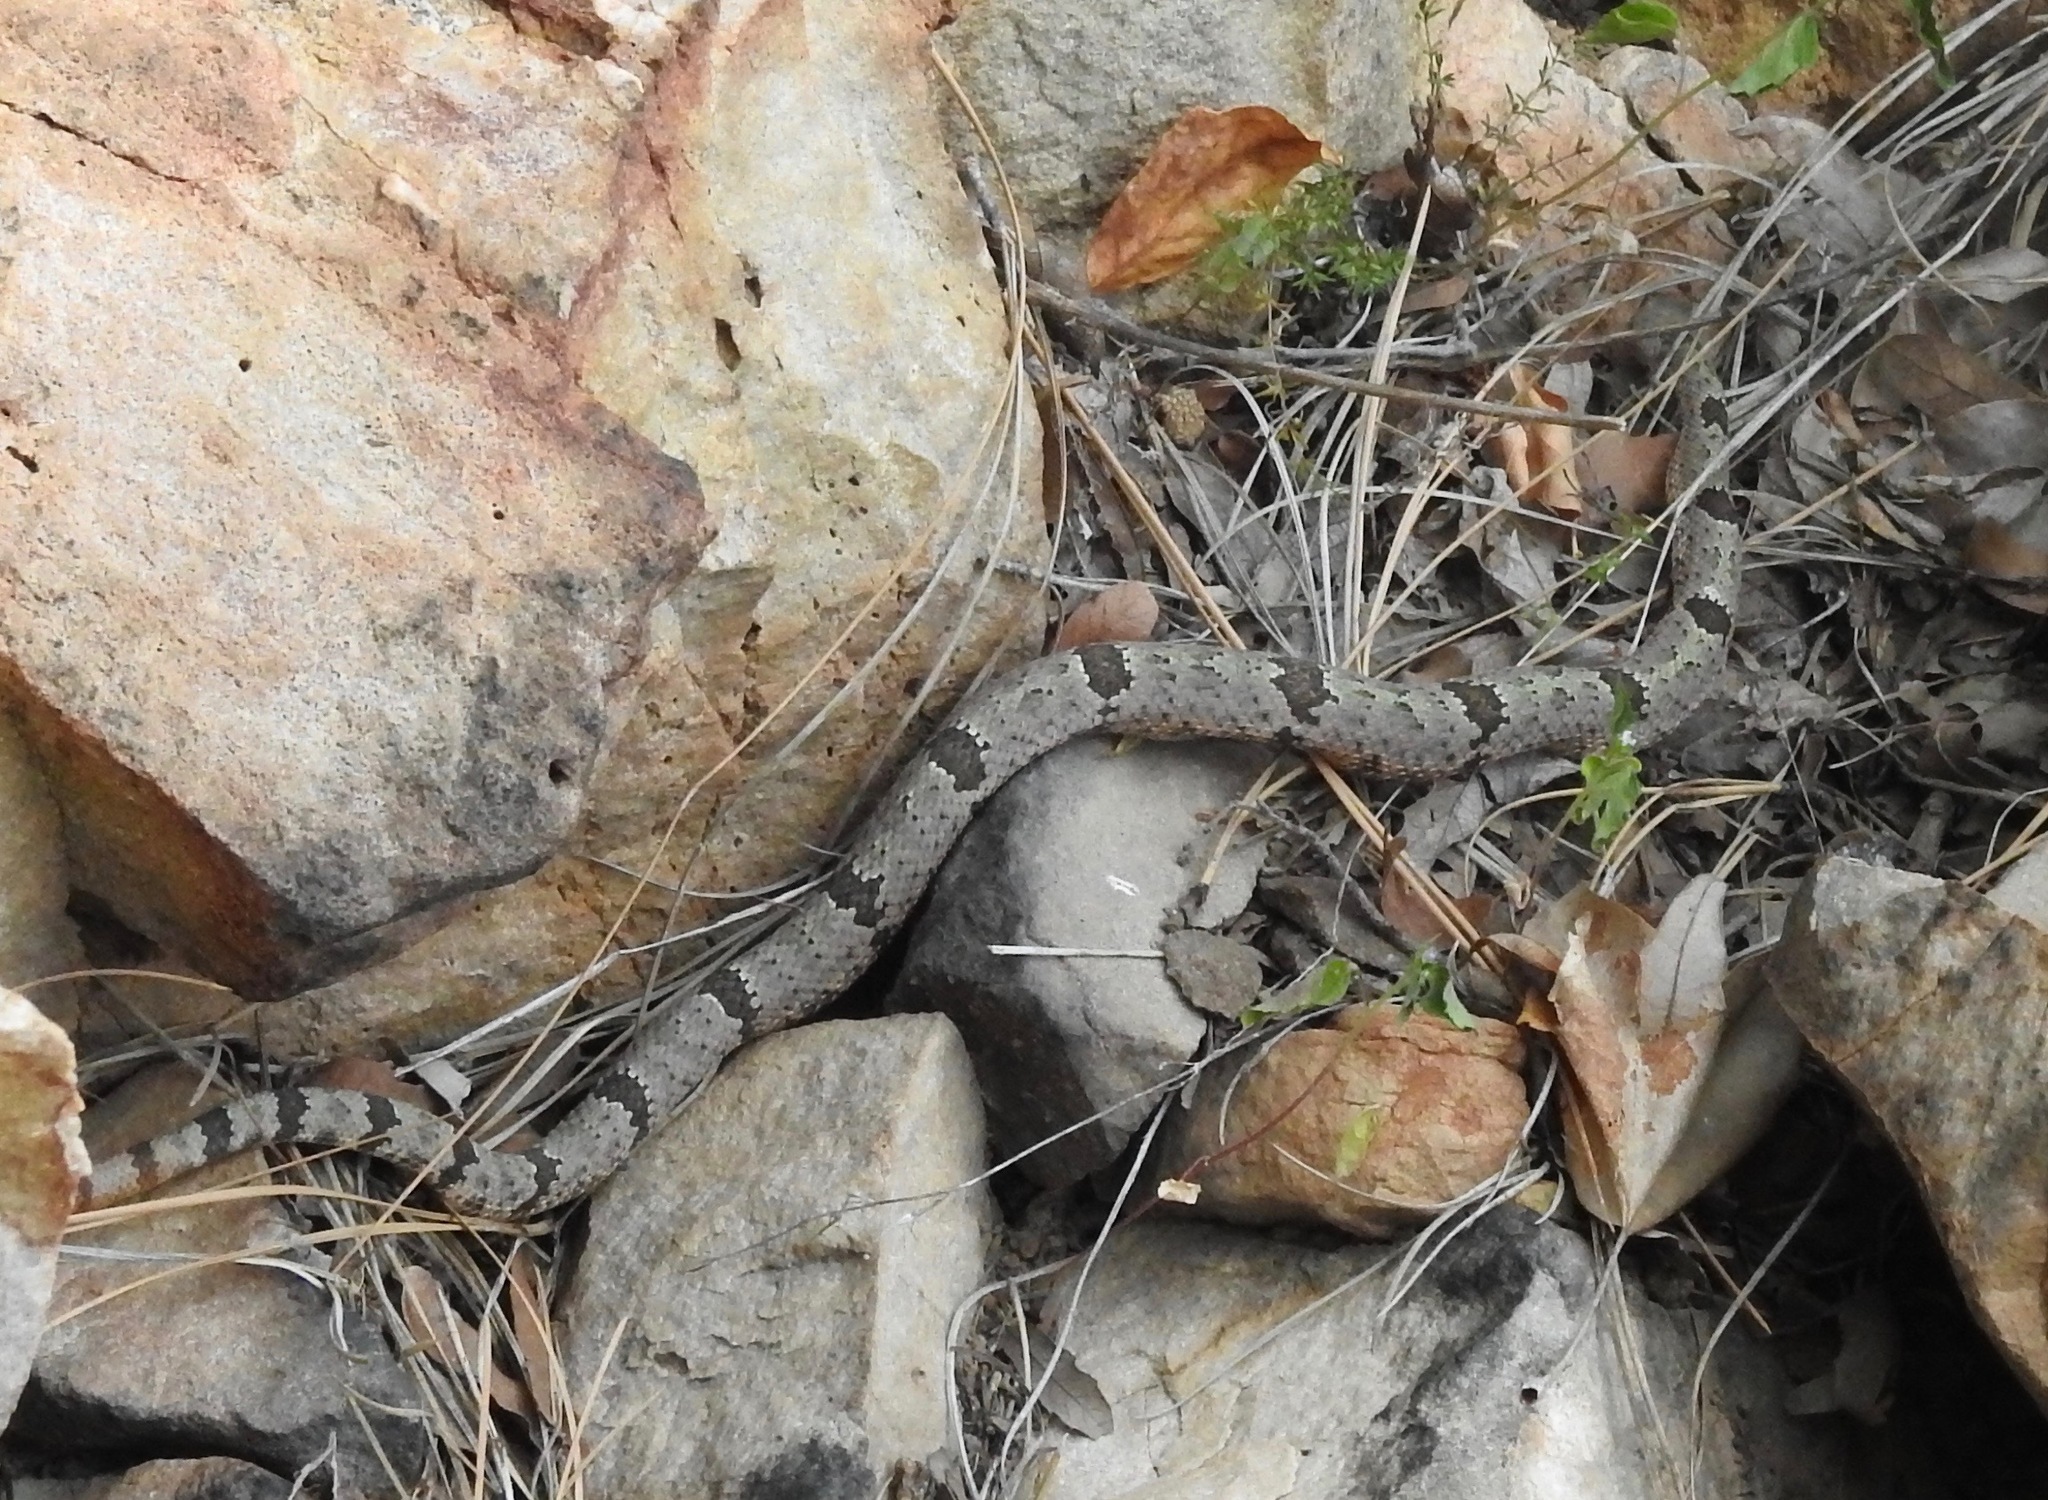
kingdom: Animalia
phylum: Chordata
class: Squamata
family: Viperidae
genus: Crotalus
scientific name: Crotalus lepidus
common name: Rock rattlesnake
